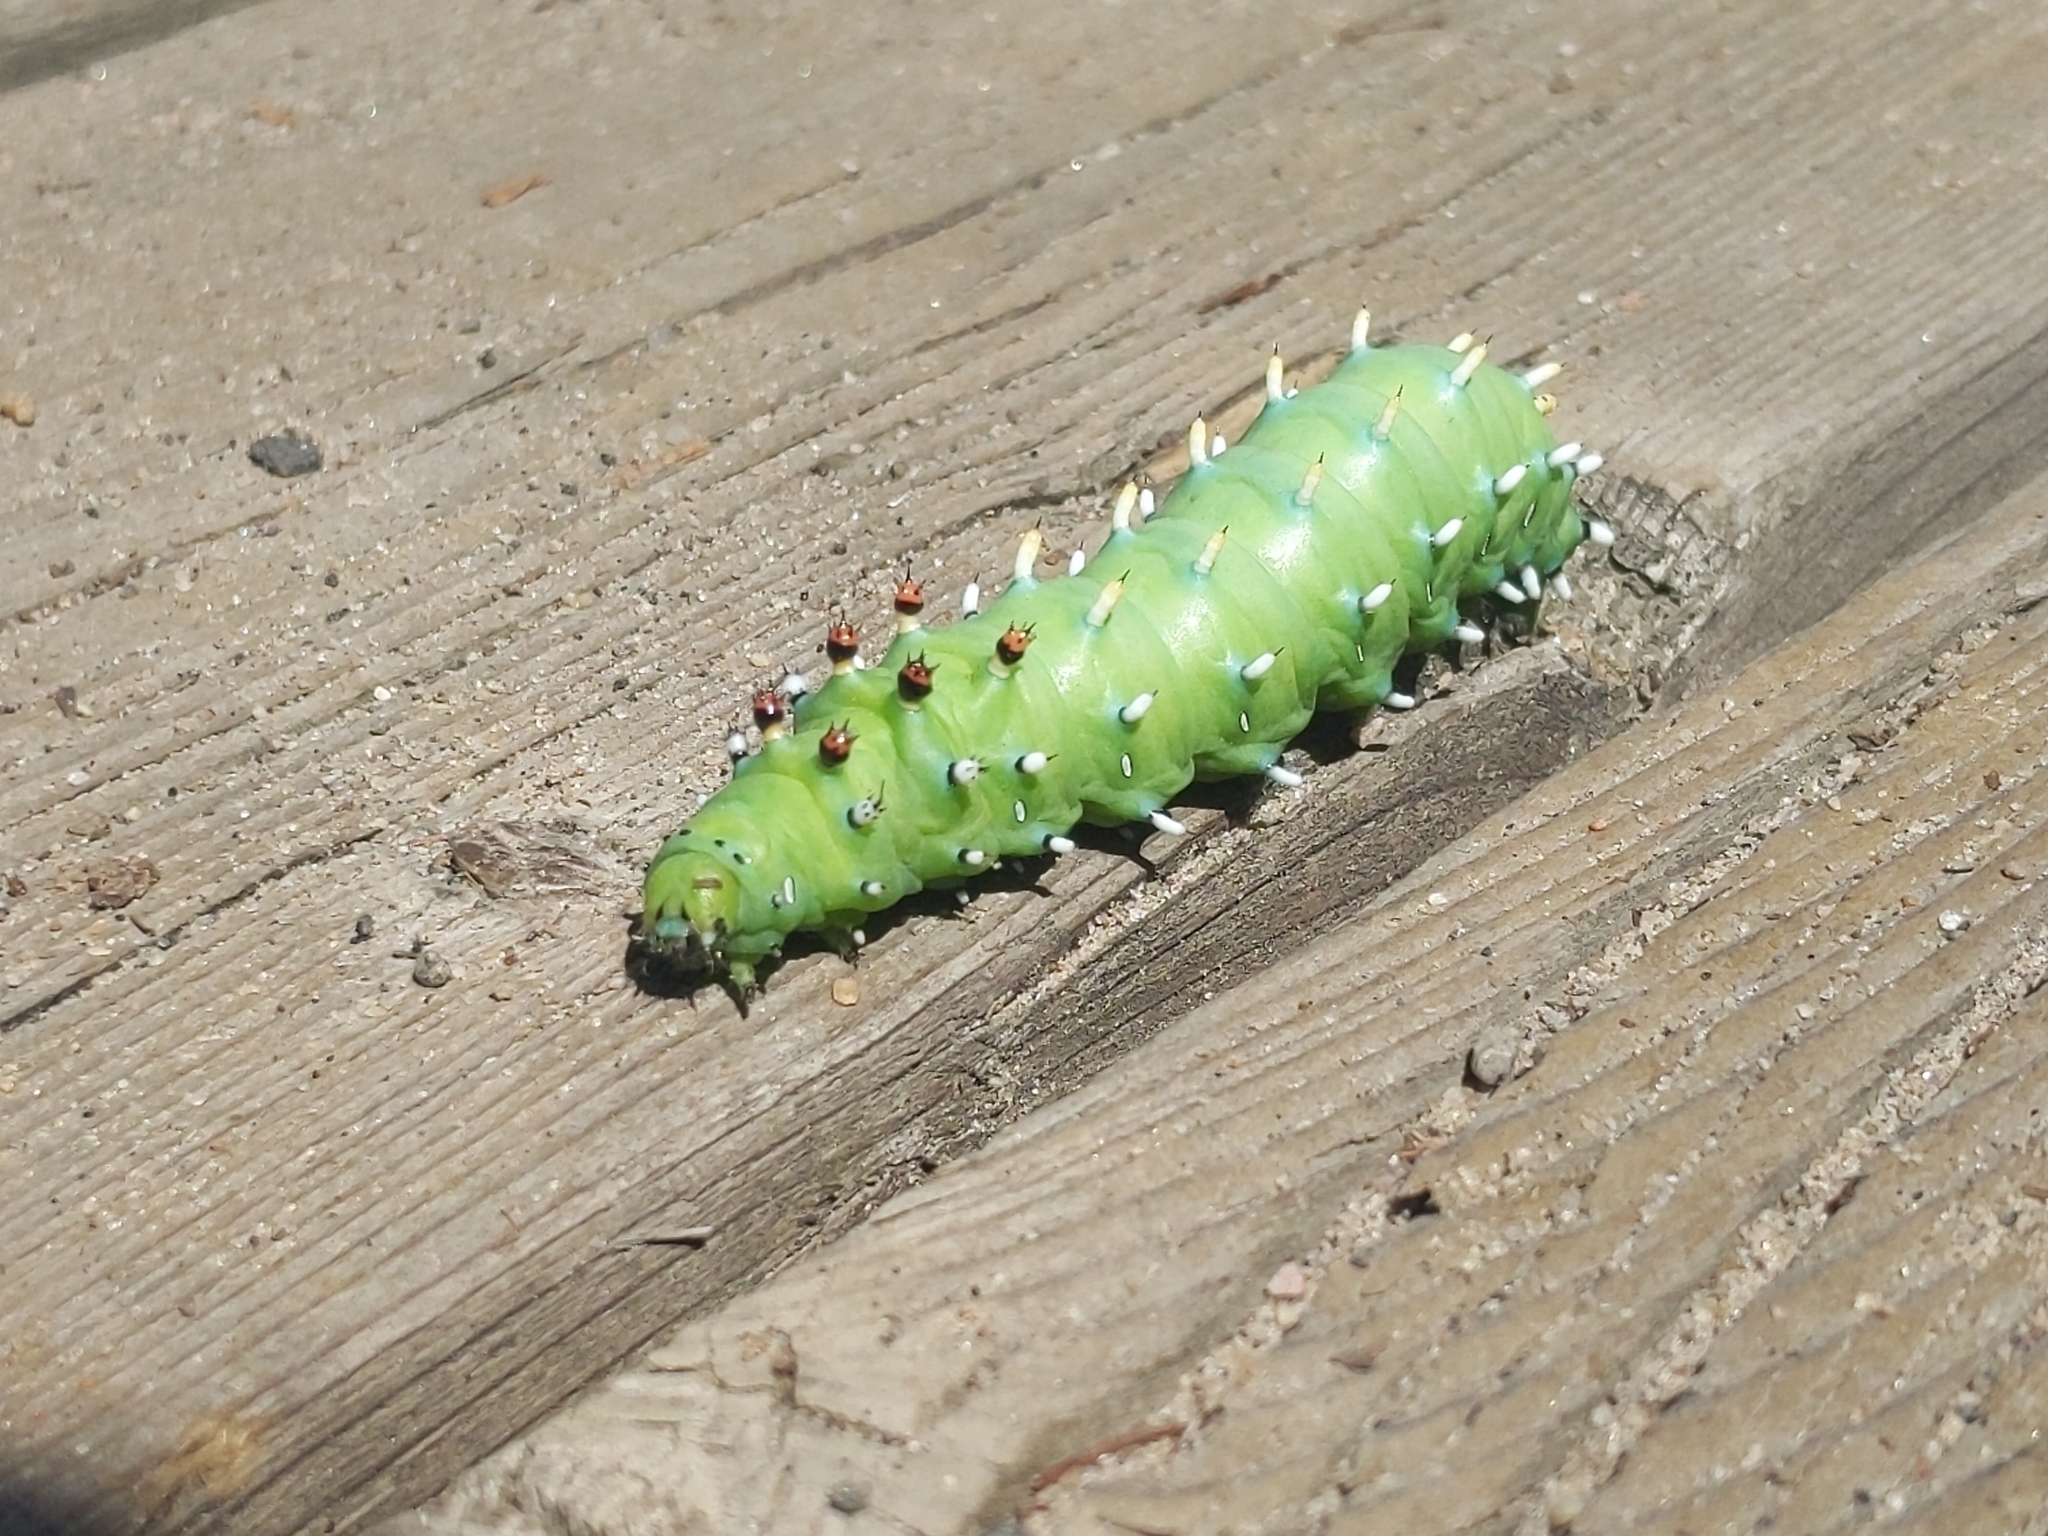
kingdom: Animalia
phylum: Arthropoda
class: Insecta
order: Lepidoptera
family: Saturniidae
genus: Hyalophora
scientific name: Hyalophora columbia
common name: Columbia silkmoth
